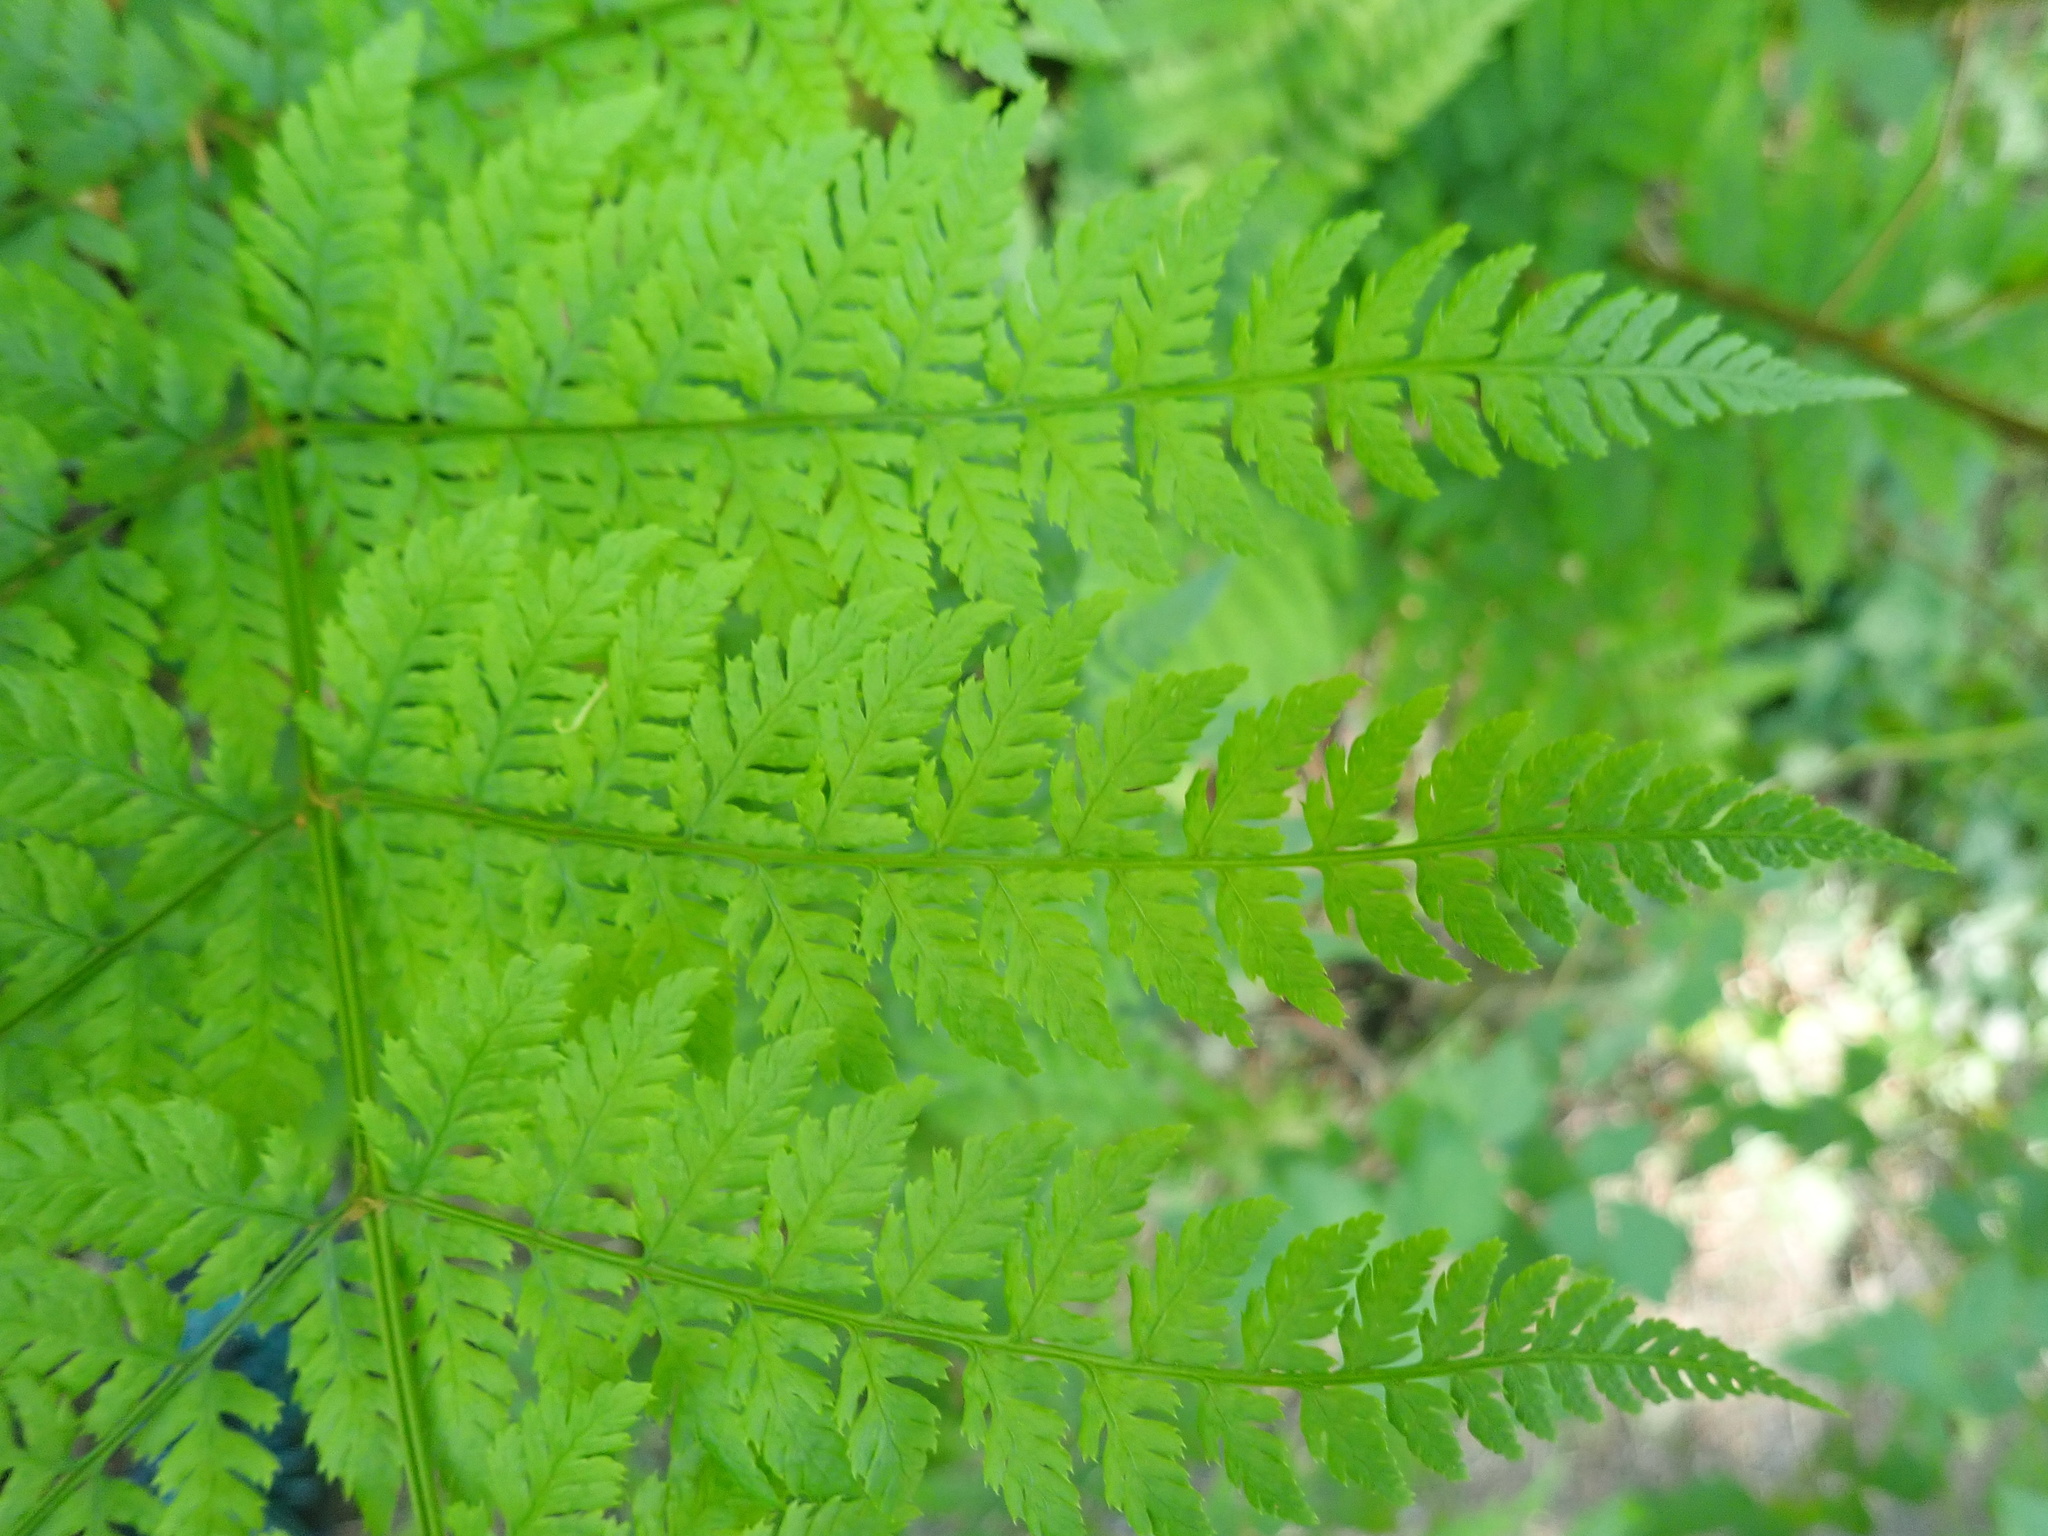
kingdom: Plantae
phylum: Tracheophyta
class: Polypodiopsida
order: Polypodiales
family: Dryopteridaceae
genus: Dryopteris
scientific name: Dryopteris expansa
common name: Northern buckler fern
